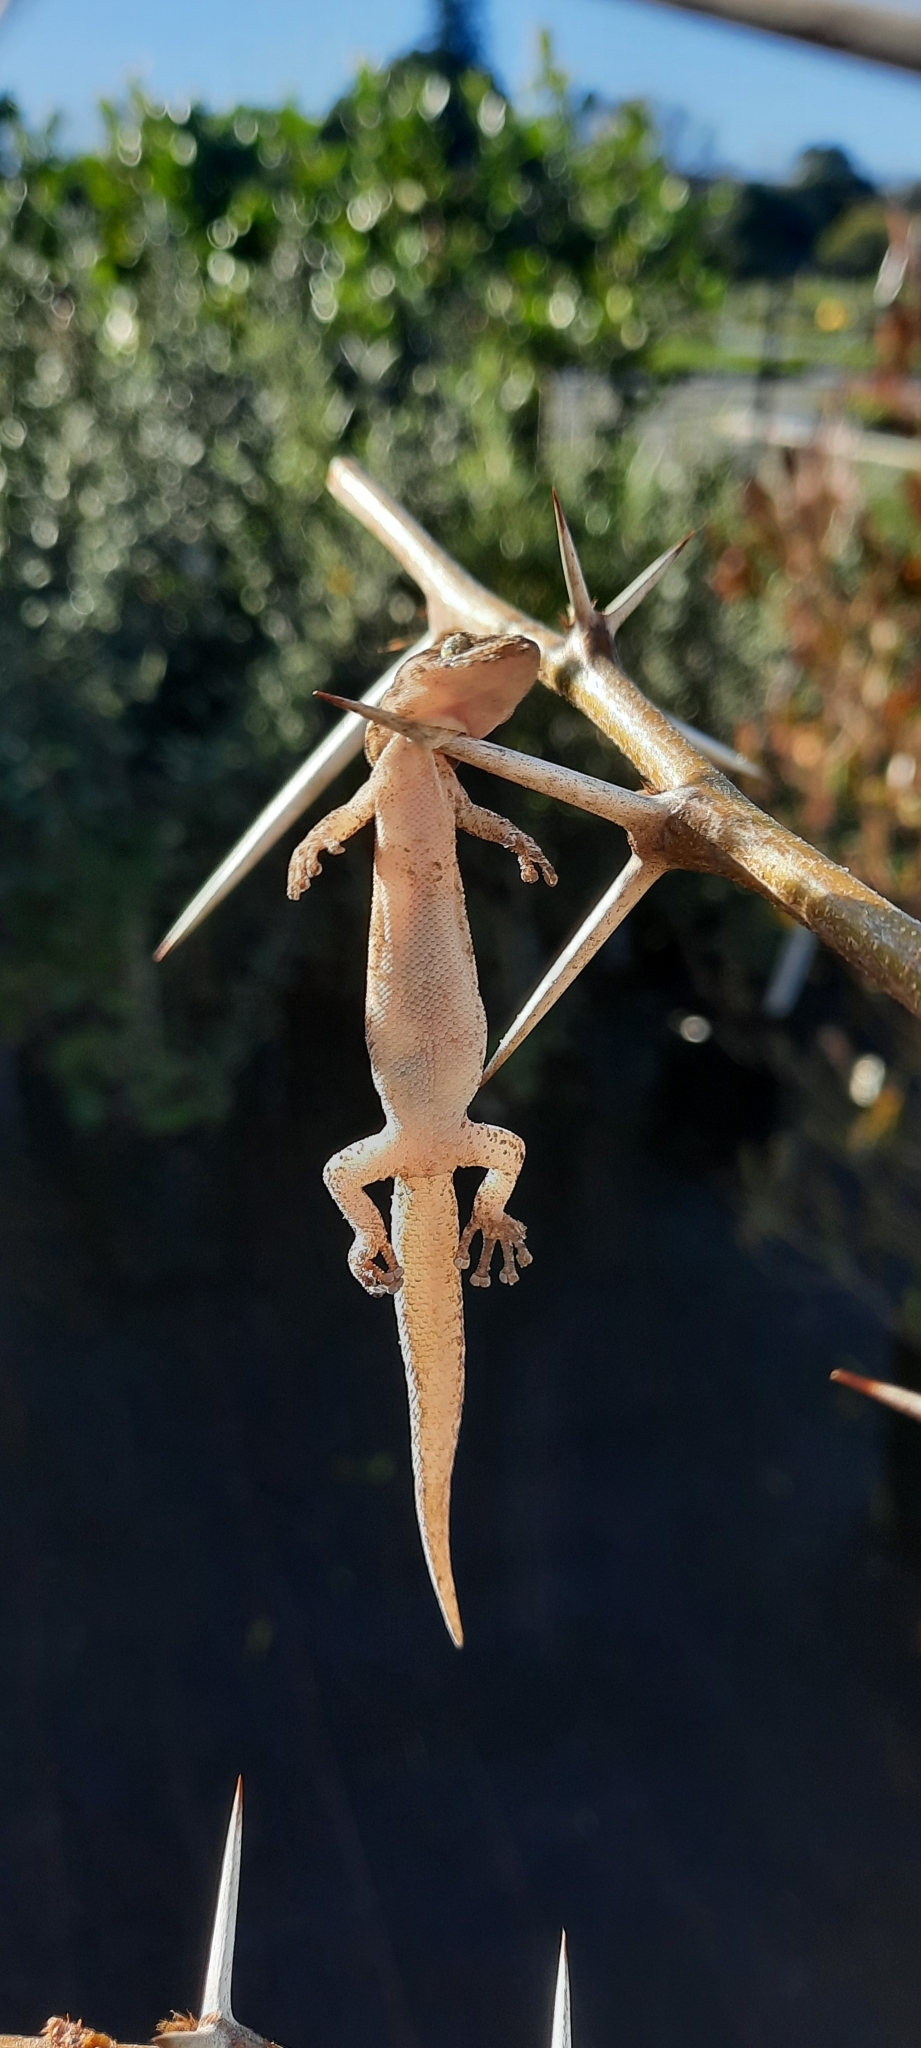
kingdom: Animalia
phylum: Chordata
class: Squamata
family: Gekkonidae
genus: Afrogecko
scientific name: Afrogecko porphyreus
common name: Marbled leaf-toed gecko
